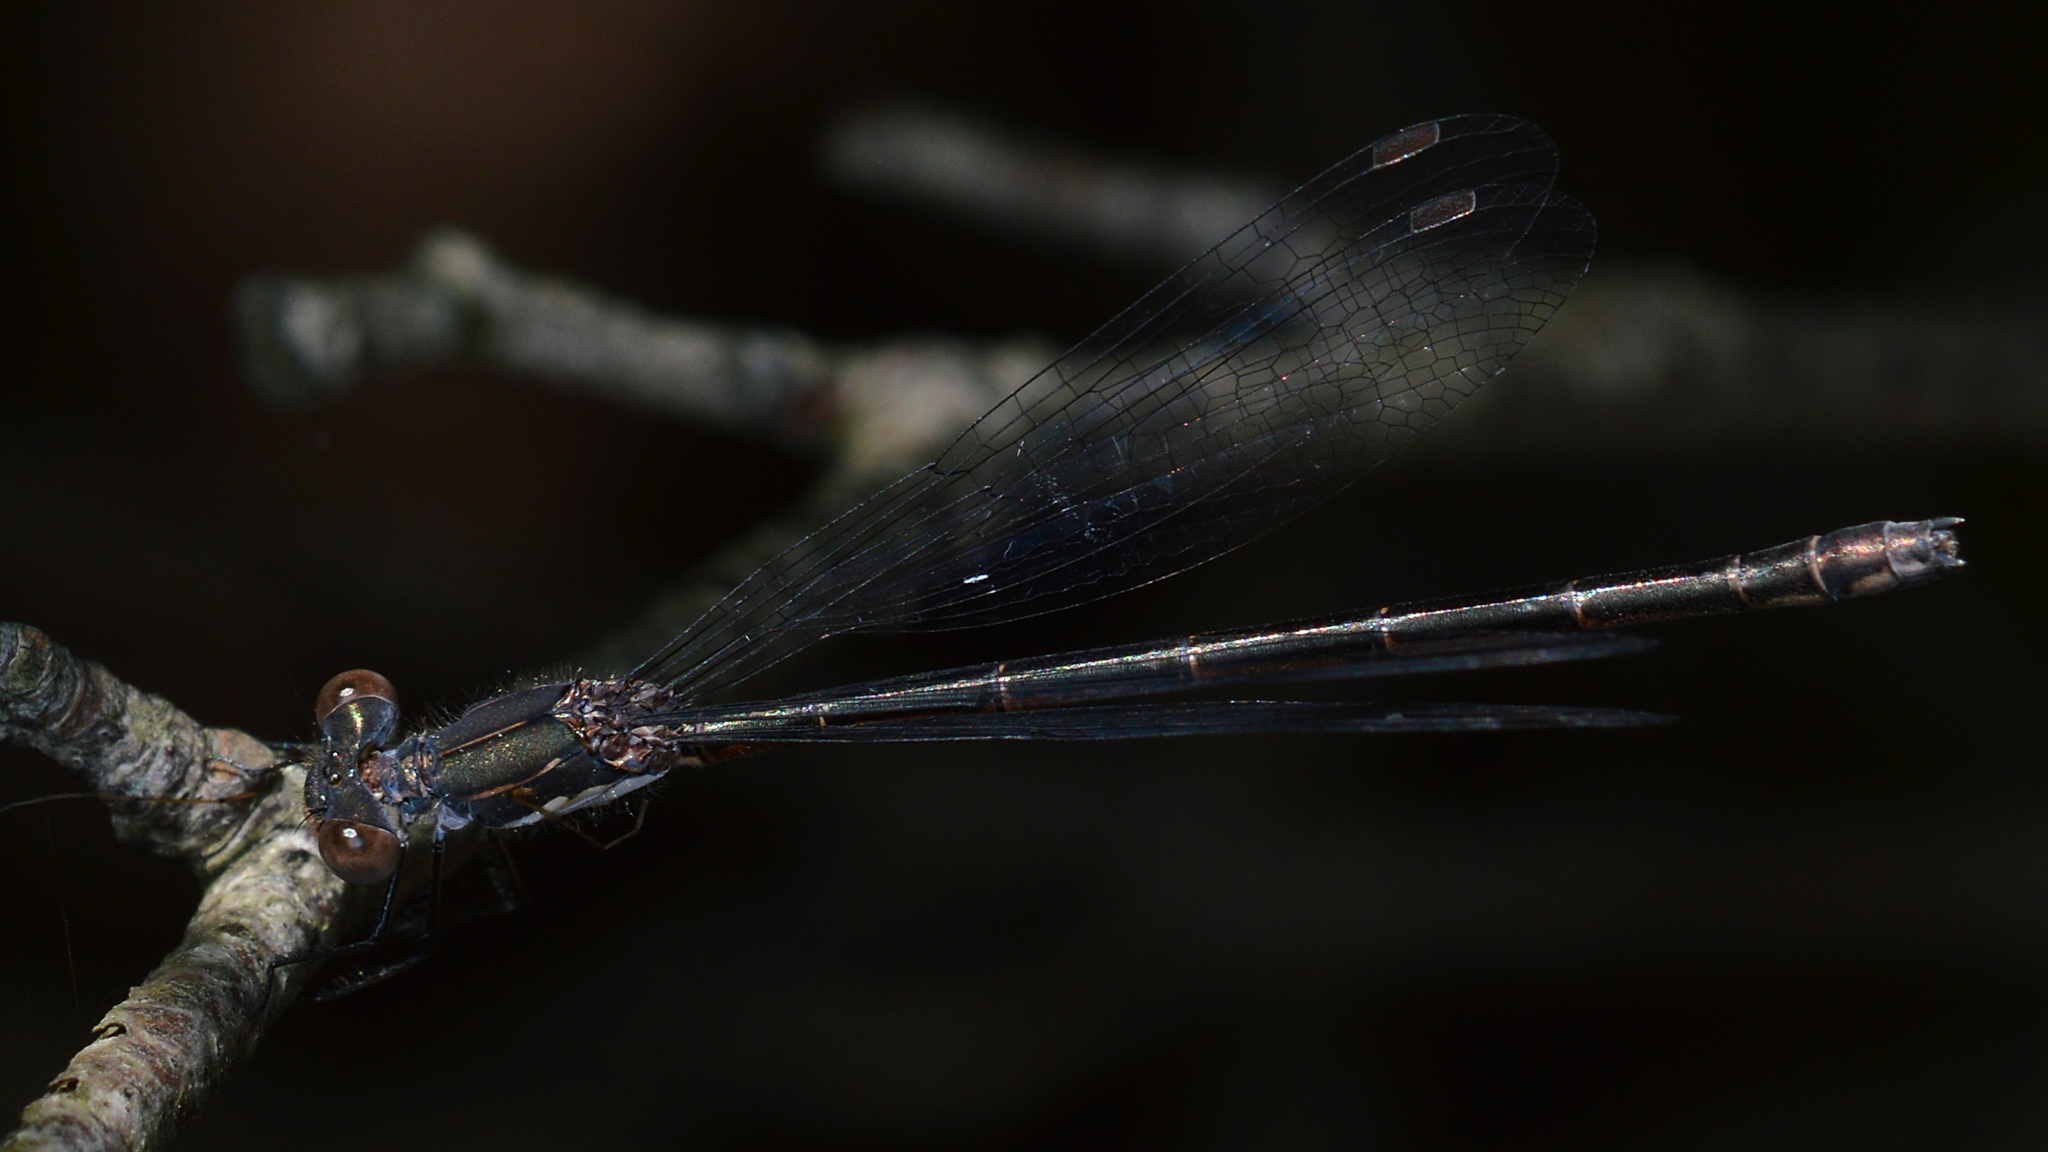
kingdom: Animalia
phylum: Arthropoda
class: Insecta
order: Odonata
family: Lestidae
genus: Lestes
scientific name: Lestes congener
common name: Spotted spreadwing
